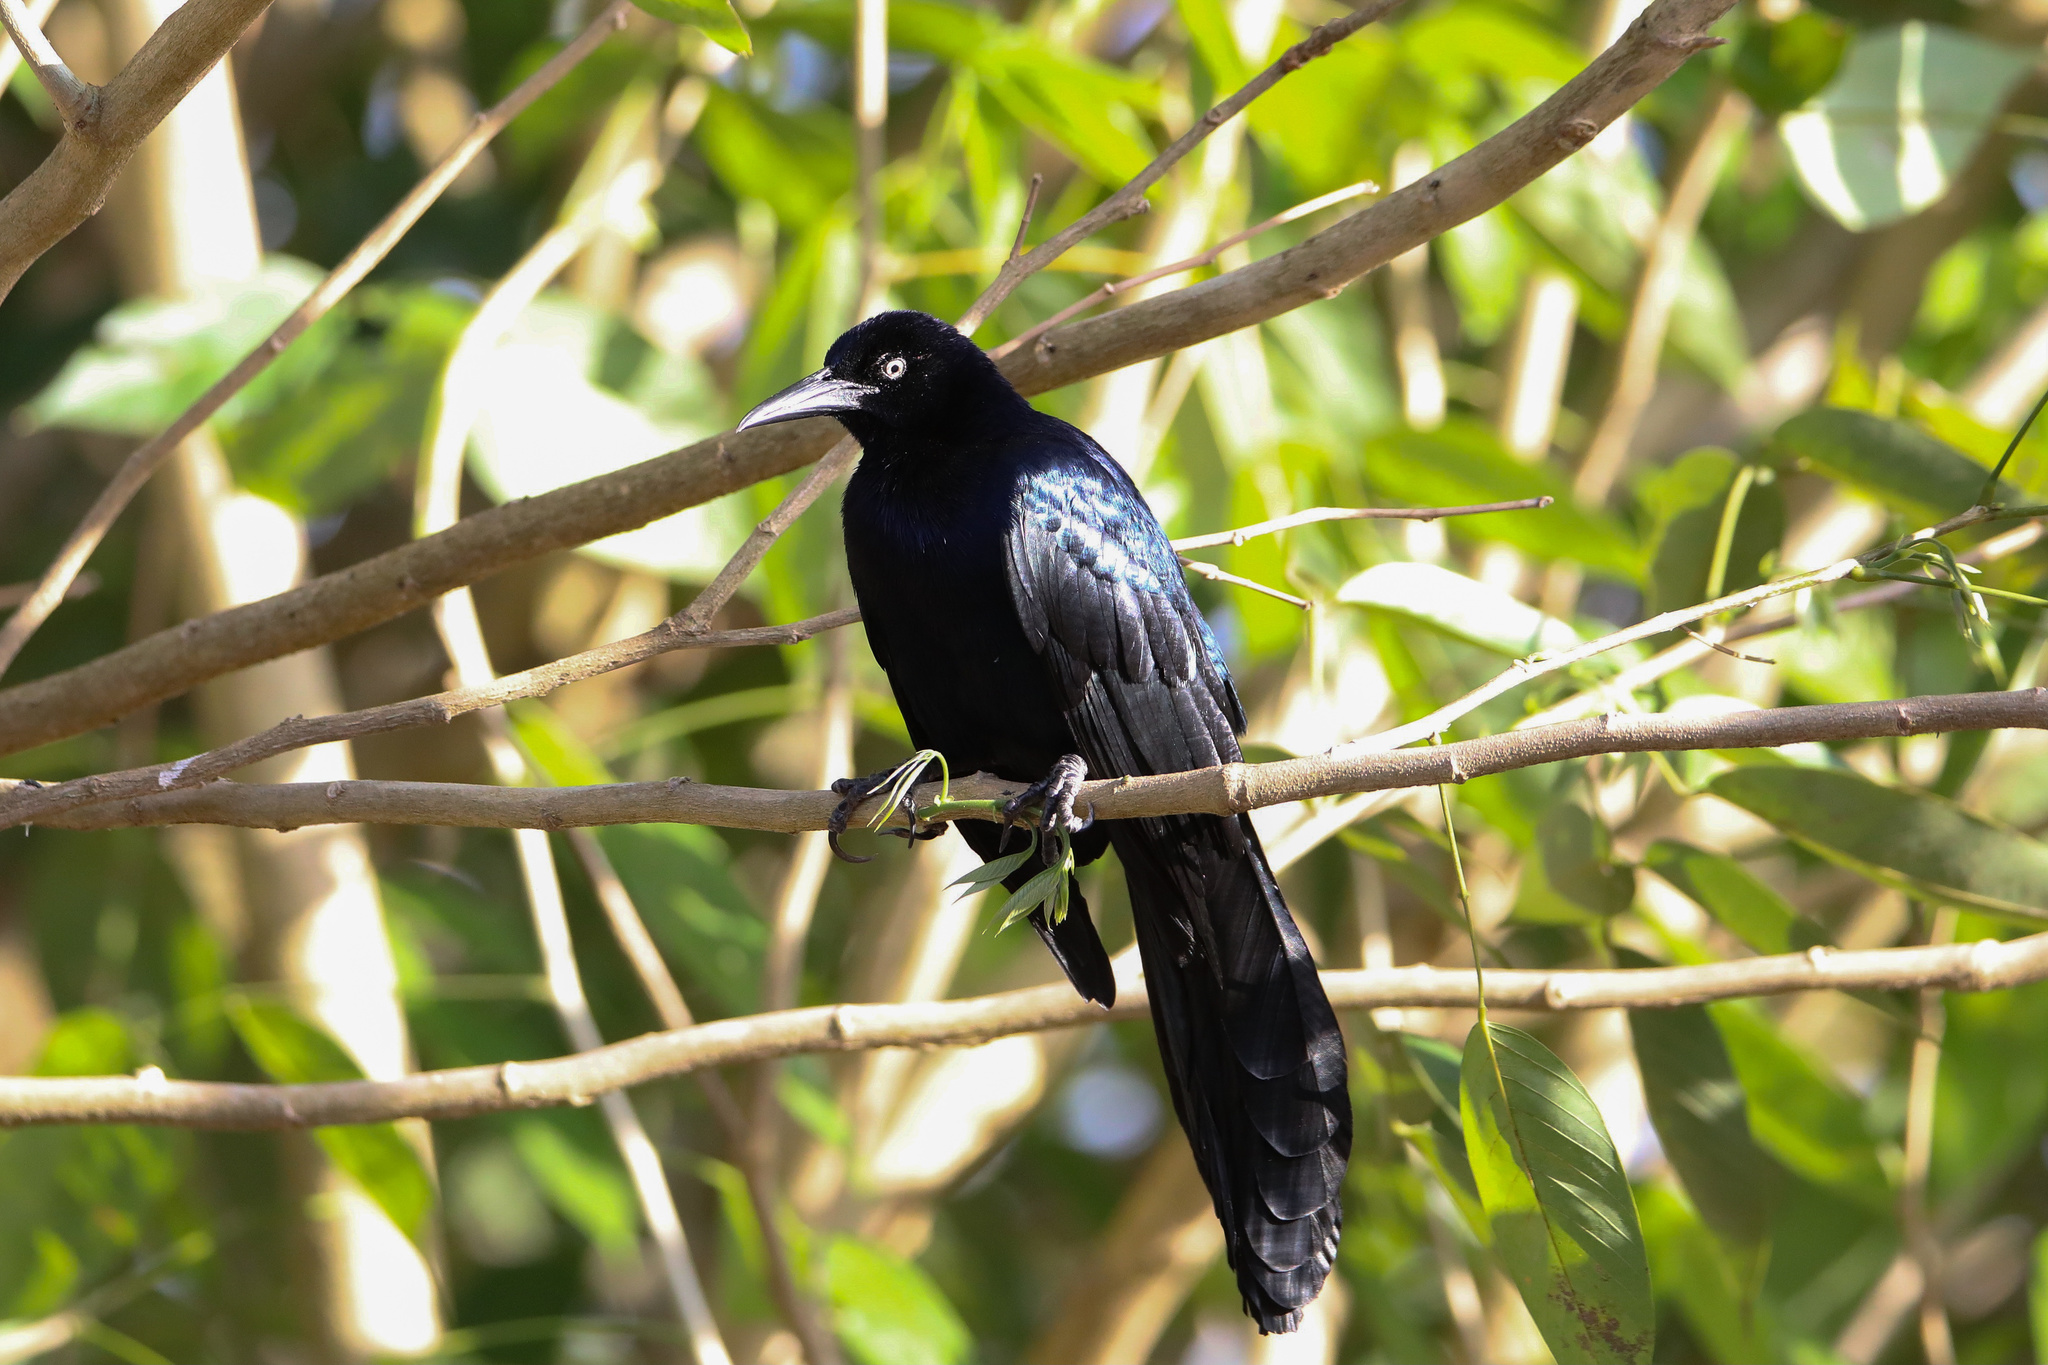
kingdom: Animalia
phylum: Chordata
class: Aves
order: Passeriformes
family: Icteridae
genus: Quiscalus
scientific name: Quiscalus mexicanus
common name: Great-tailed grackle
